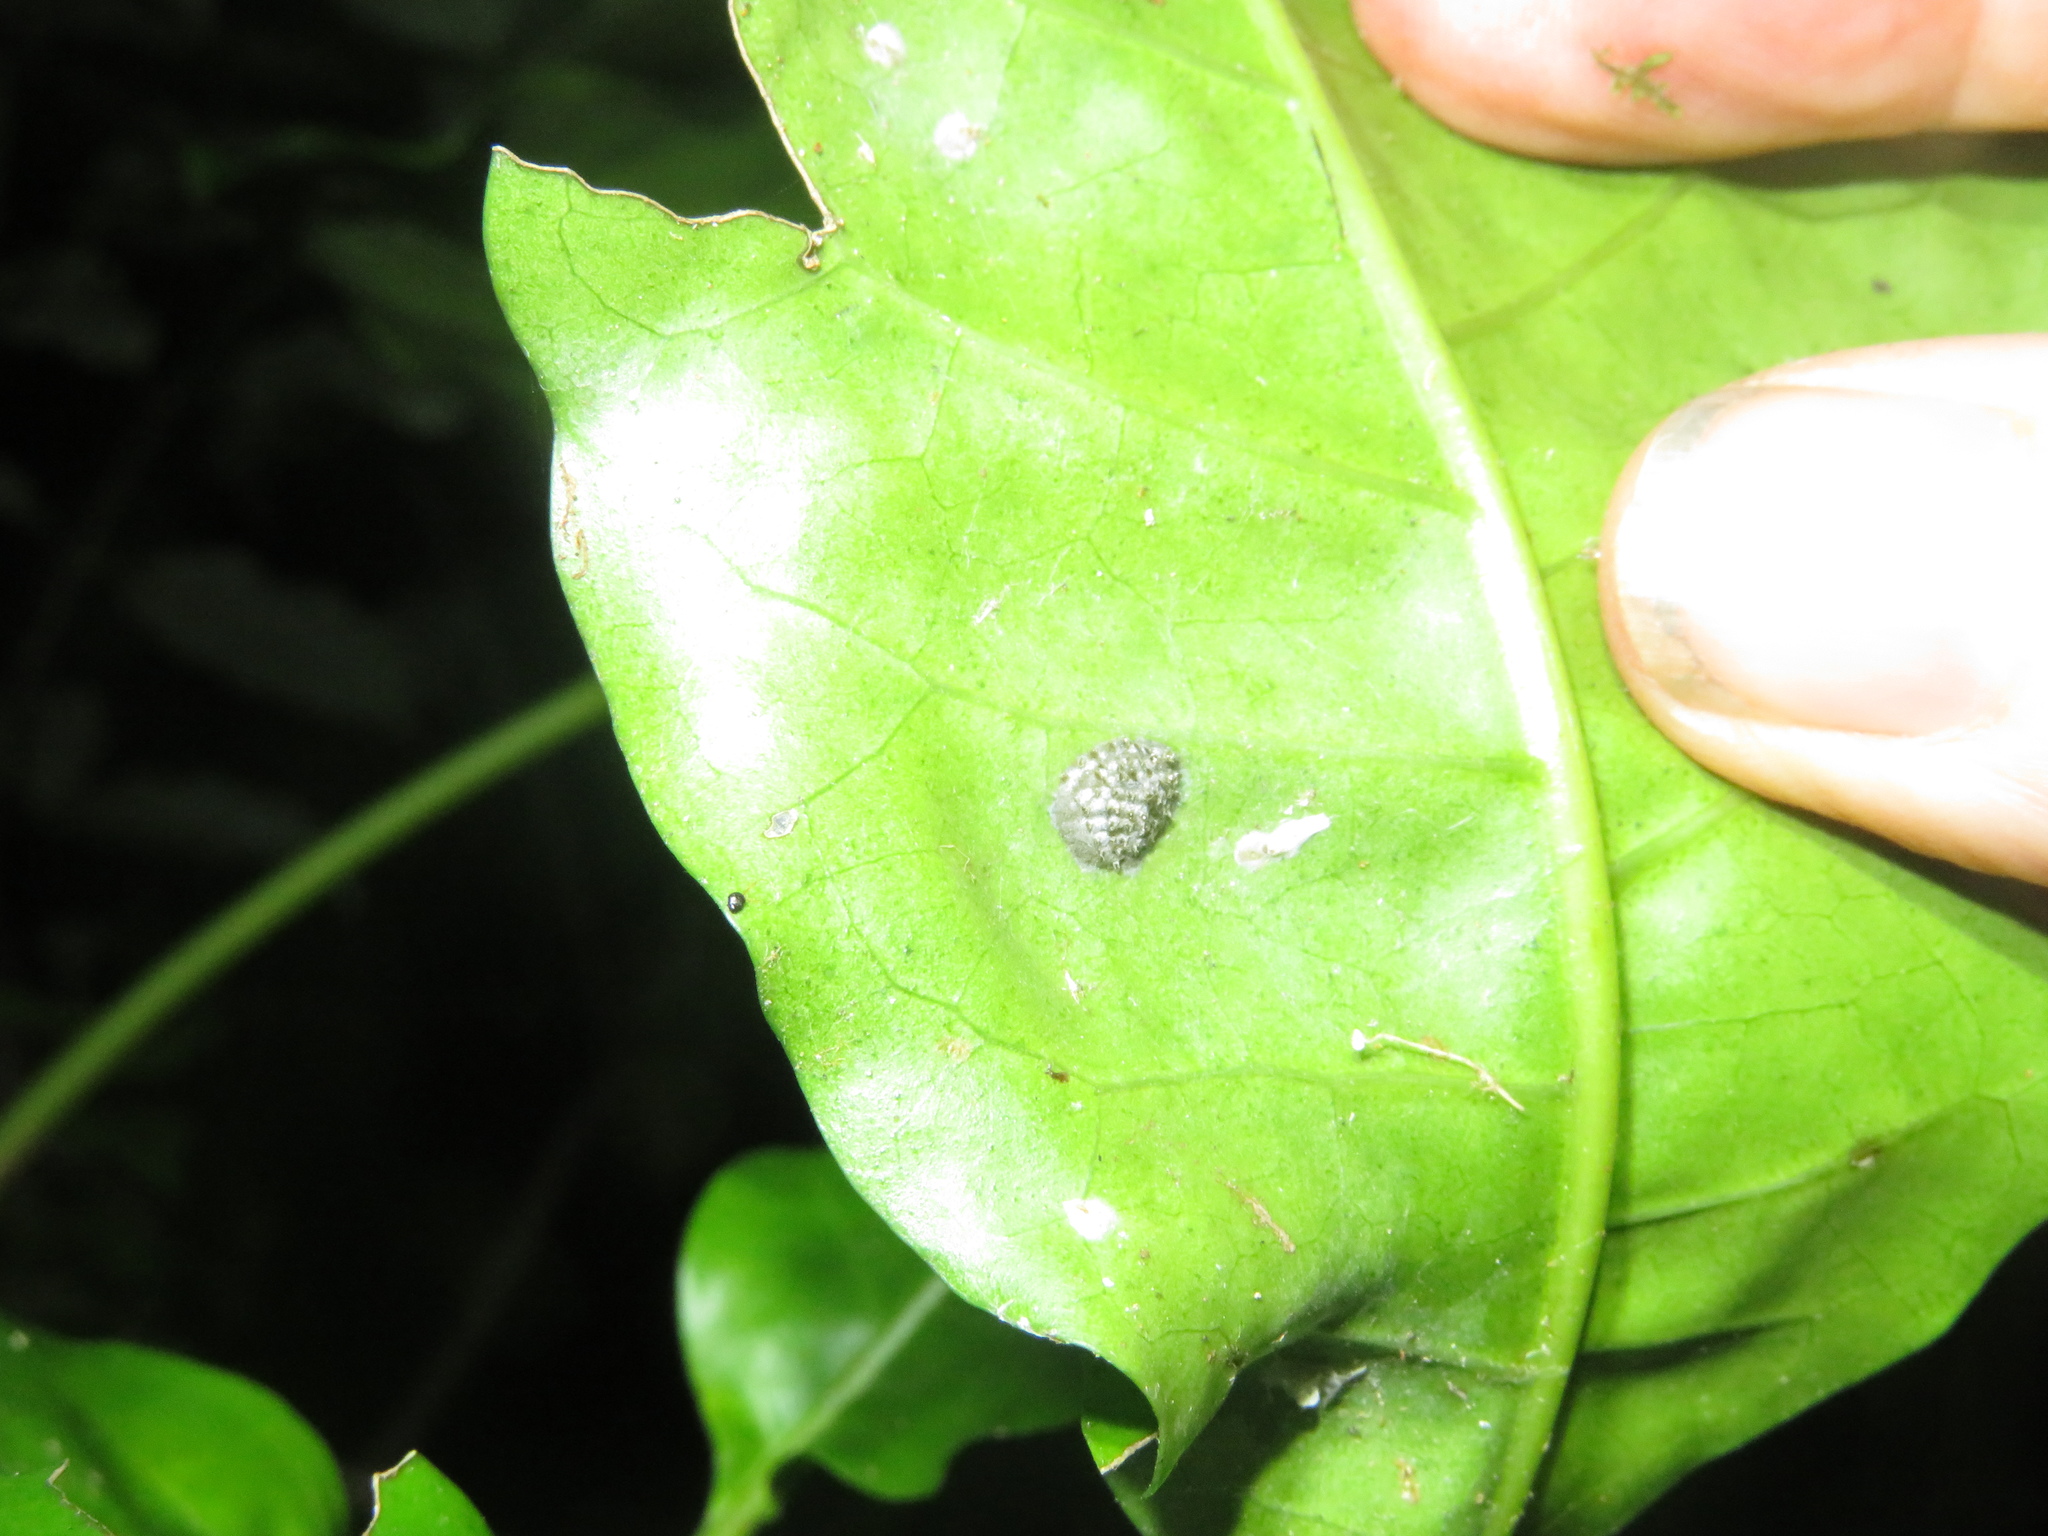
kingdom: Animalia
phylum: Arthropoda
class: Insecta
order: Hemiptera
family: Flatidae
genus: Siphanta
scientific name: Siphanta acuta
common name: Torpedo bug
